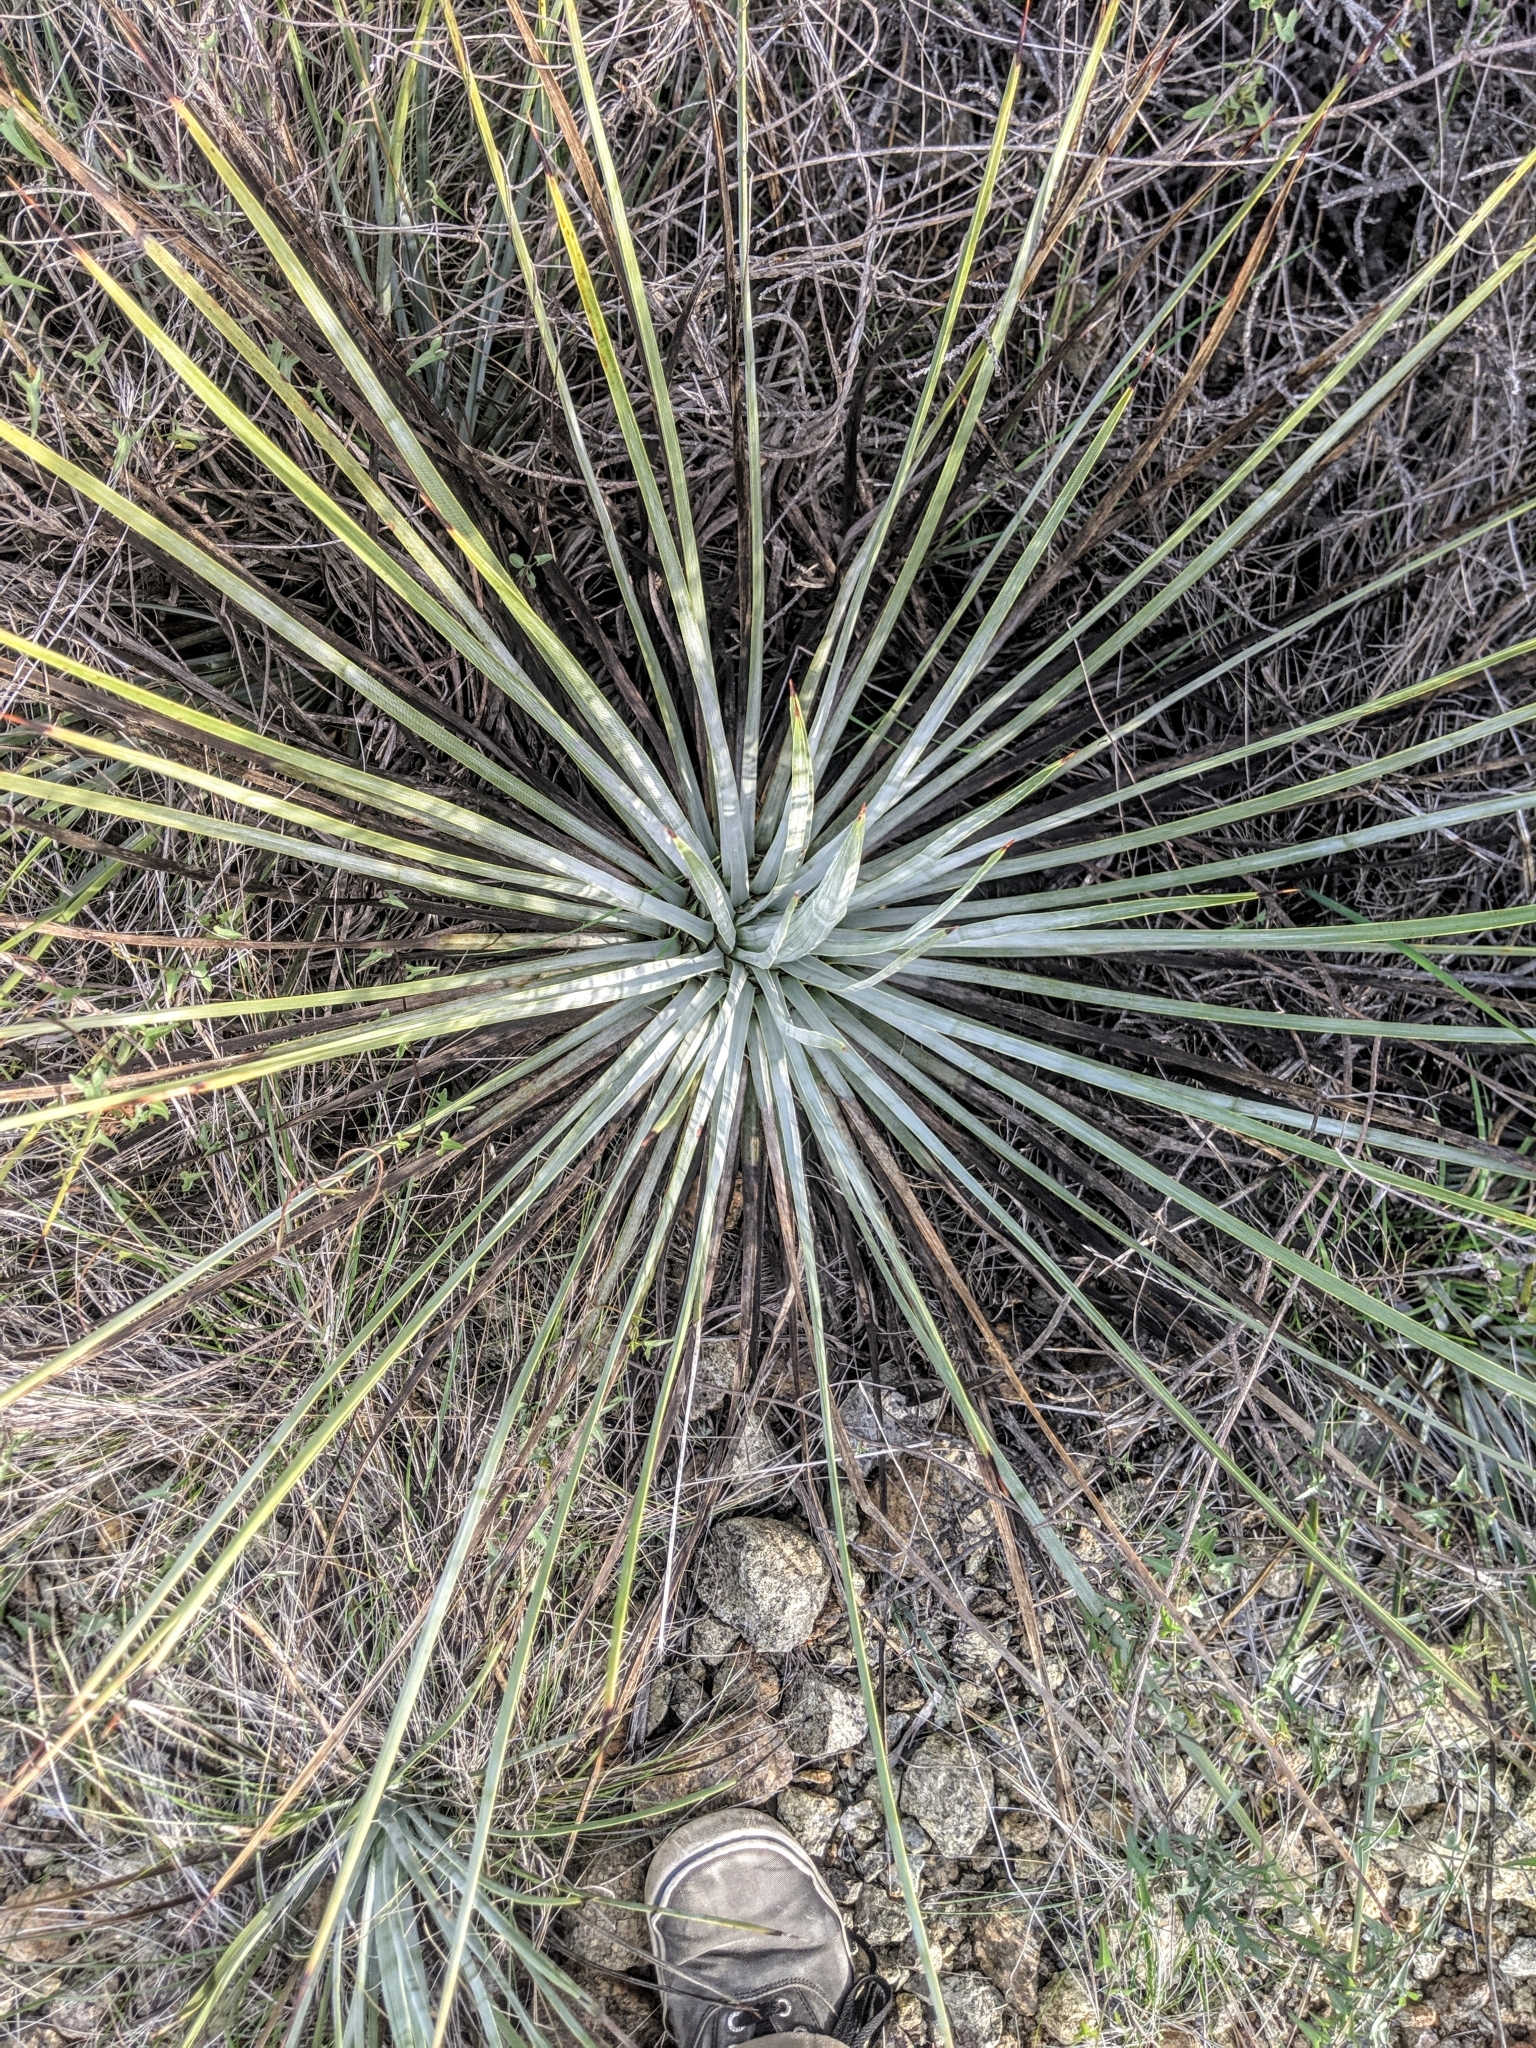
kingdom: Plantae
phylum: Tracheophyta
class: Liliopsida
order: Asparagales
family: Asparagaceae
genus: Hesperoyucca
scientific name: Hesperoyucca whipplei
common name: Our lord's-candle
